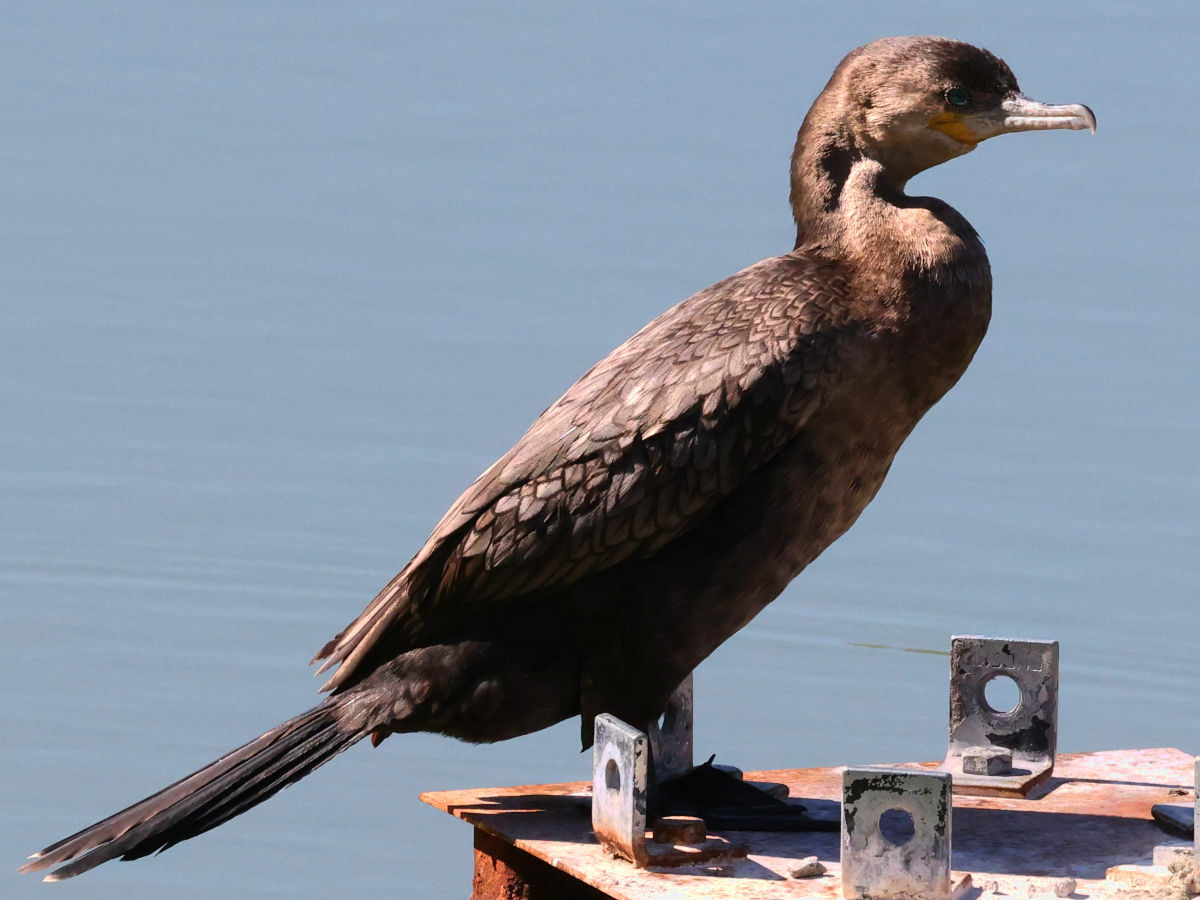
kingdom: Animalia
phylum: Chordata
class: Aves
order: Suliformes
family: Phalacrocoracidae
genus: Phalacrocorax
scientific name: Phalacrocorax brasilianus
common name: Neotropic cormorant
